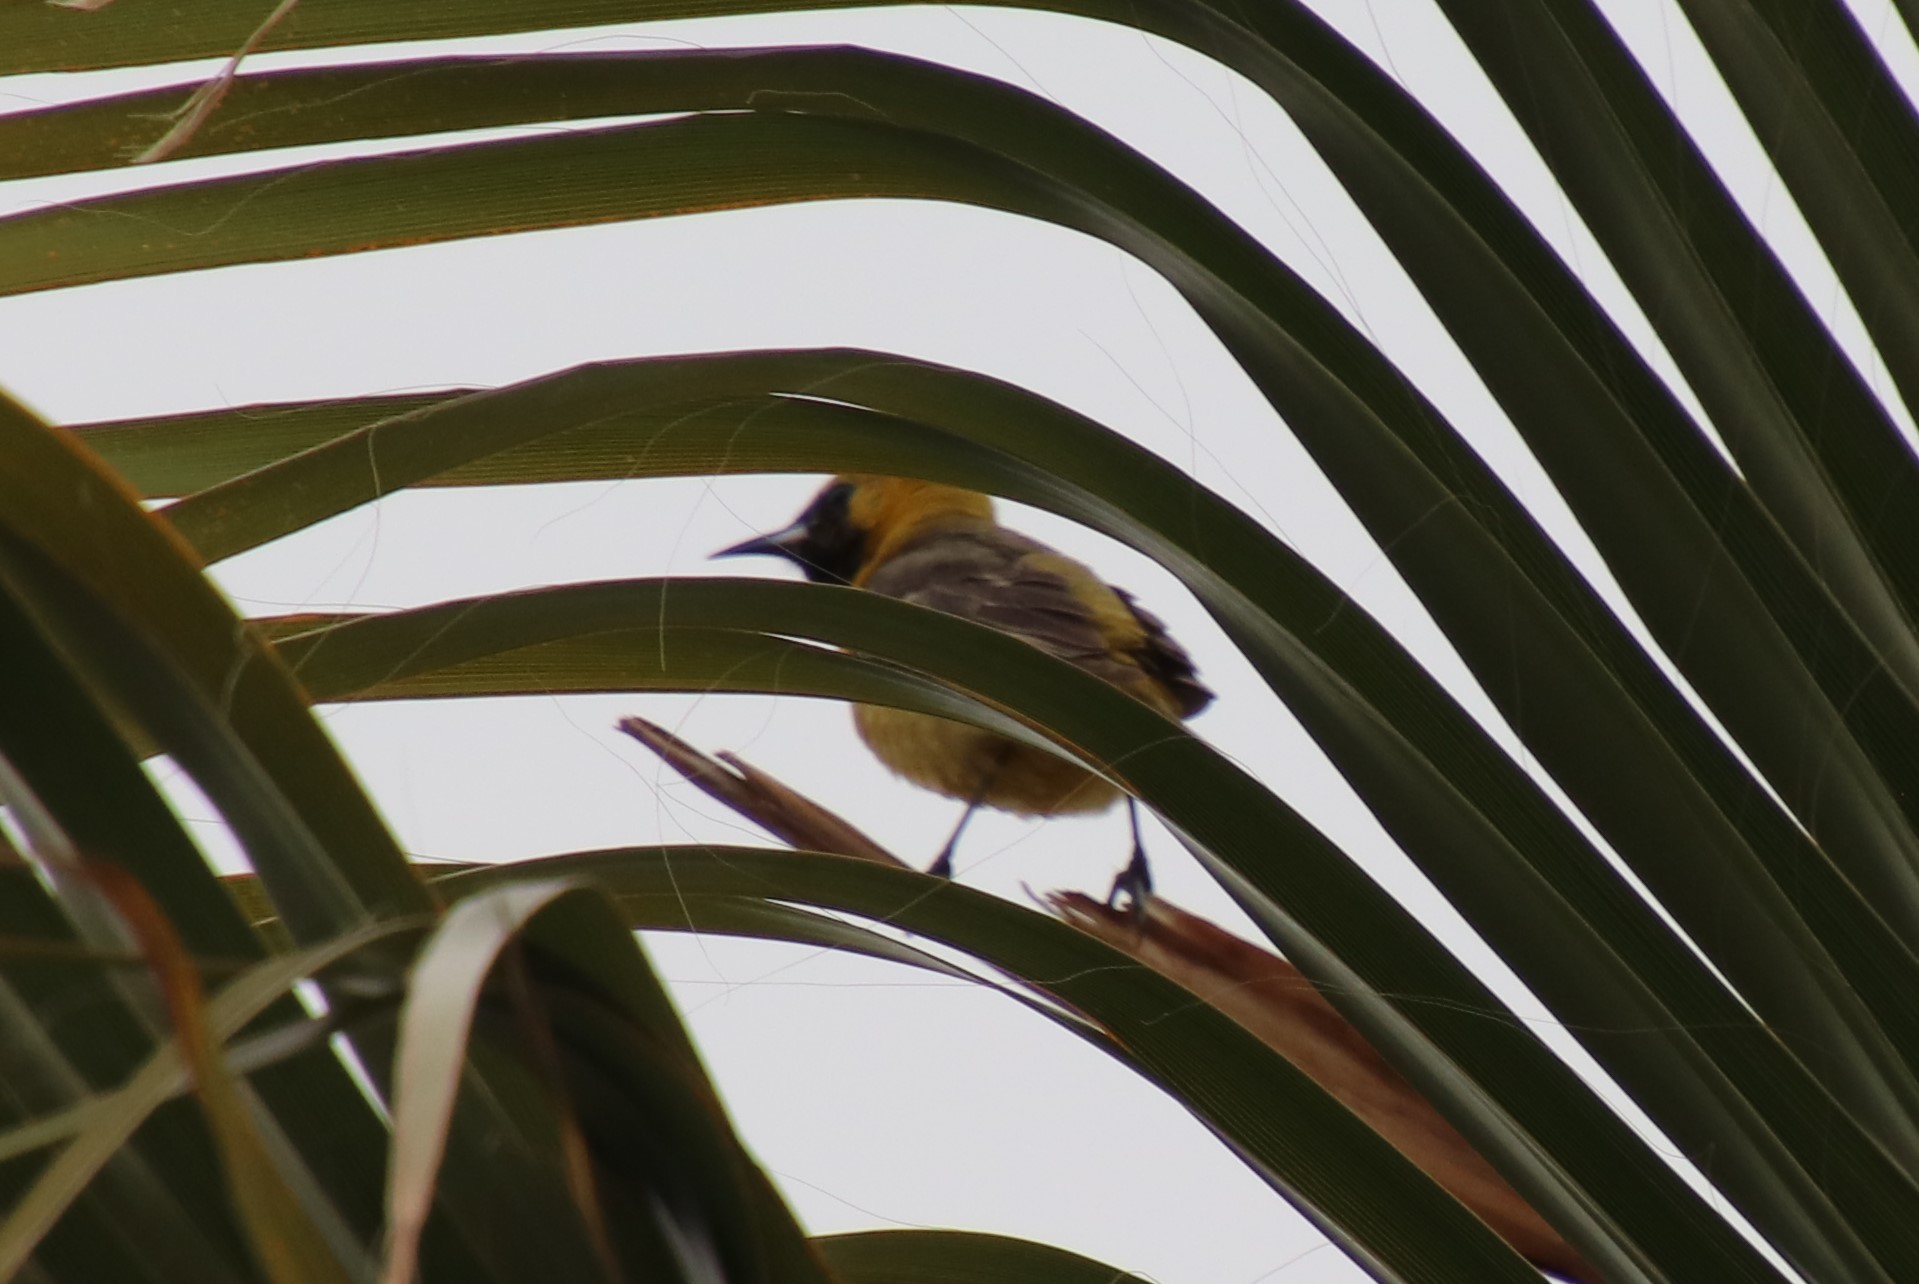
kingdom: Animalia
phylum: Chordata
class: Aves
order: Passeriformes
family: Icteridae
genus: Icterus
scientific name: Icterus cucullatus
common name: Hooded oriole
